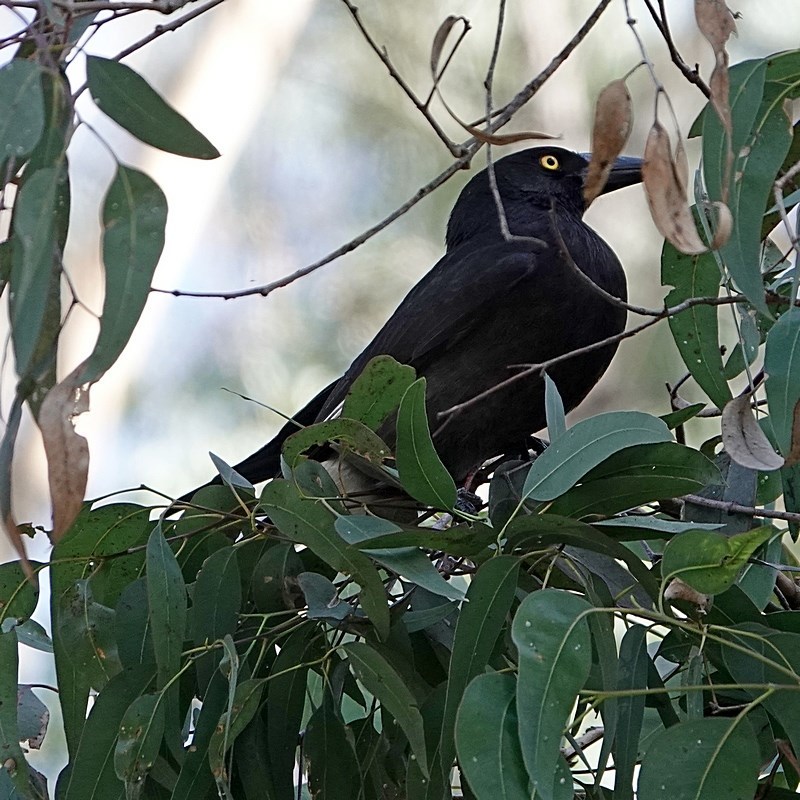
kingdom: Animalia
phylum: Chordata
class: Aves
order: Passeriformes
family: Cracticidae
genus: Strepera
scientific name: Strepera graculina
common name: Pied currawong
